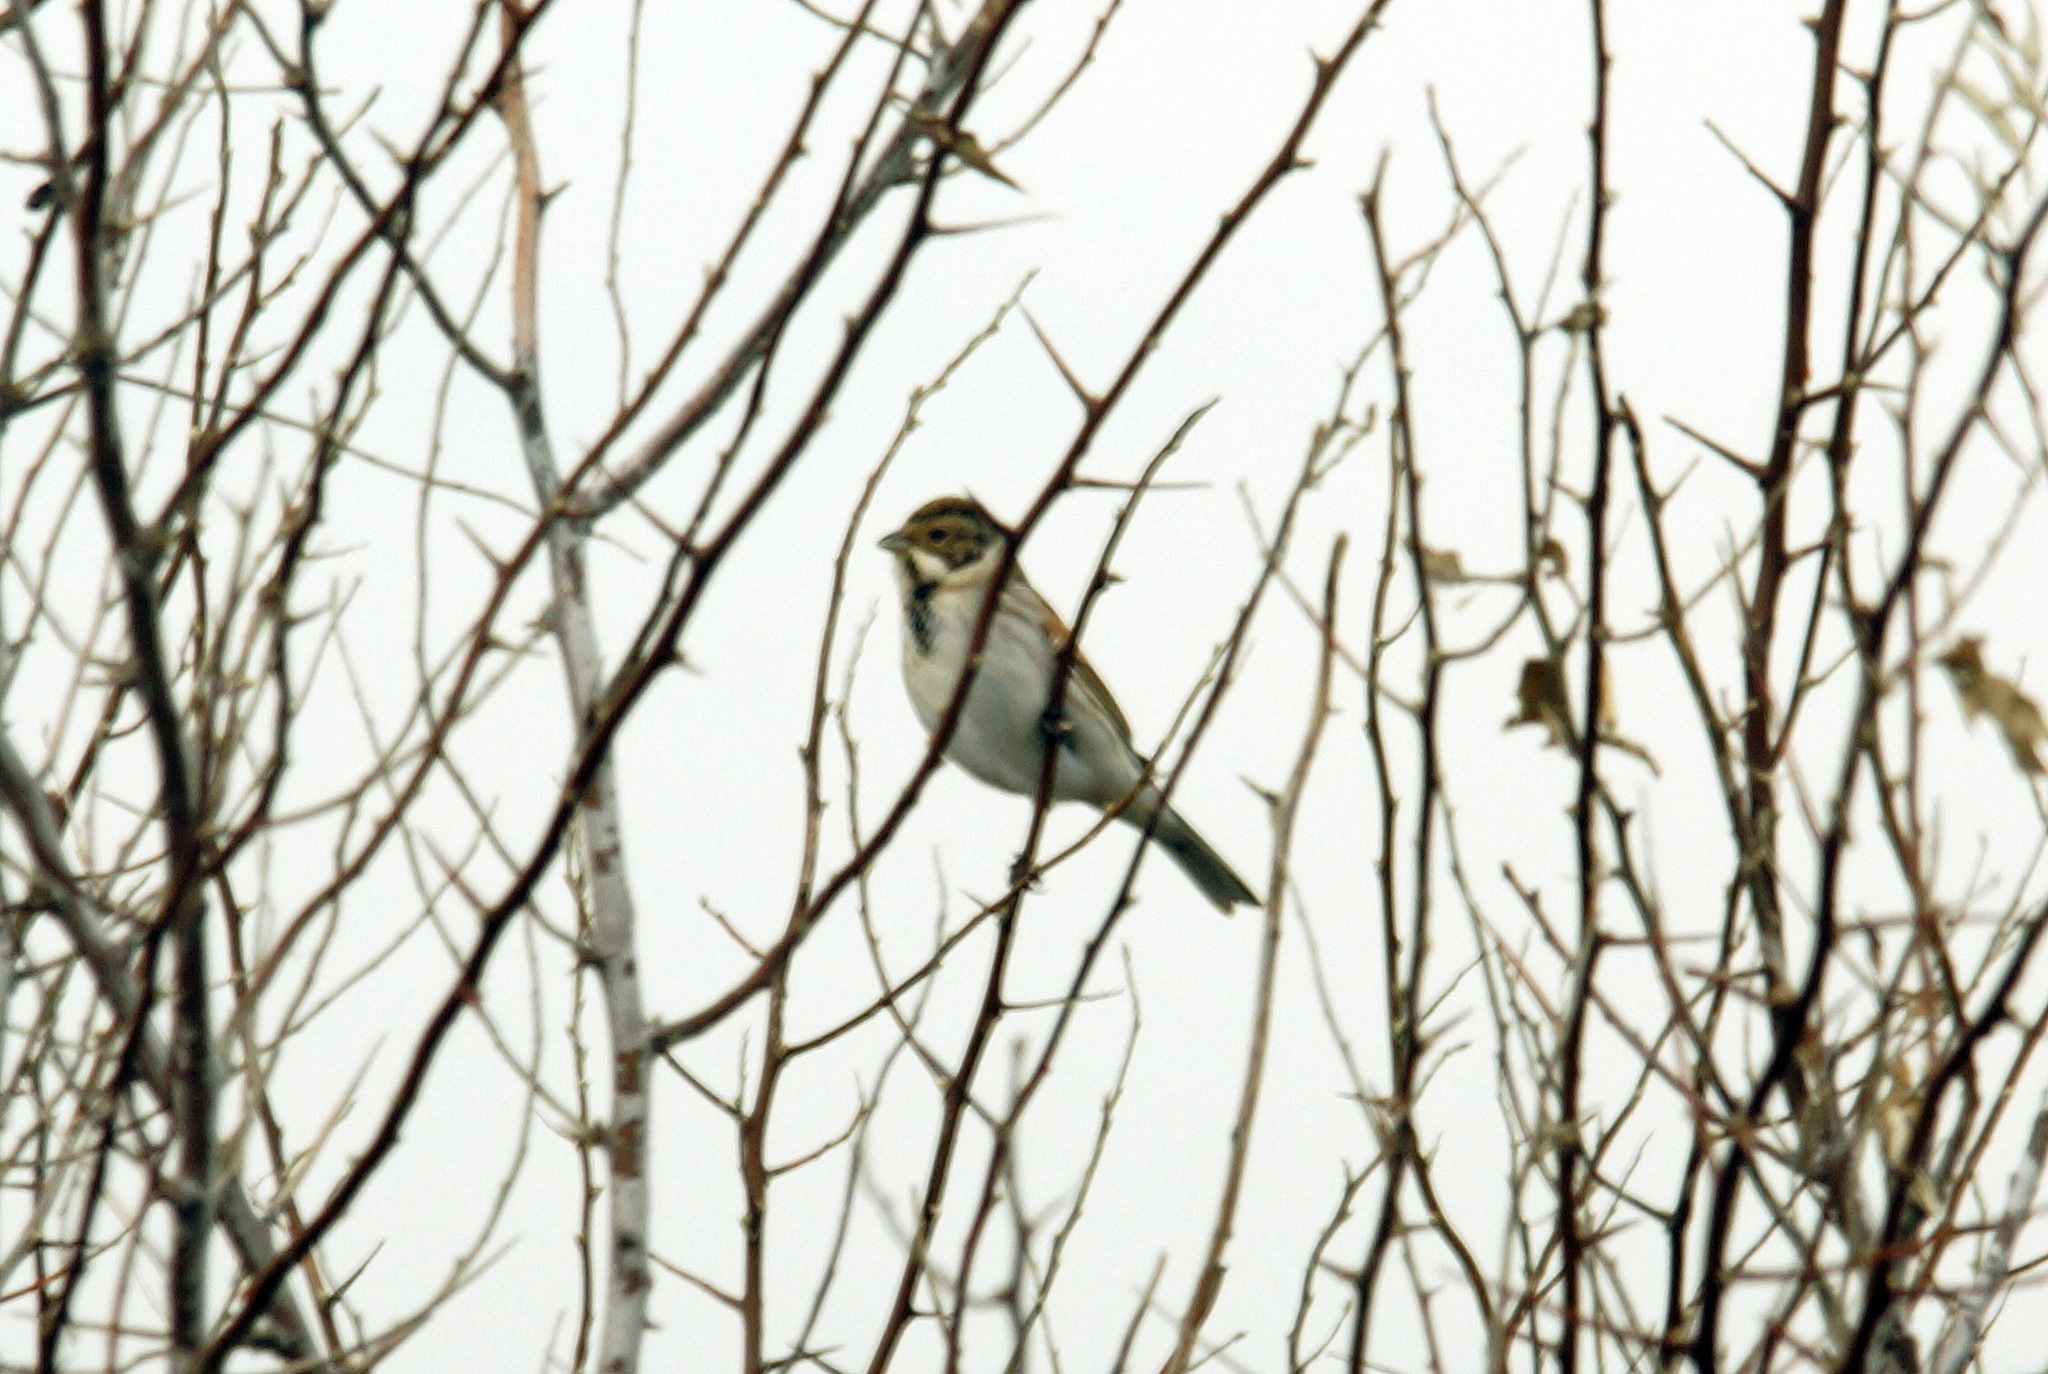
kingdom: Animalia
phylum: Chordata
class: Aves
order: Passeriformes
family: Emberizidae
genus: Emberiza
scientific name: Emberiza schoeniclus
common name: Reed bunting
